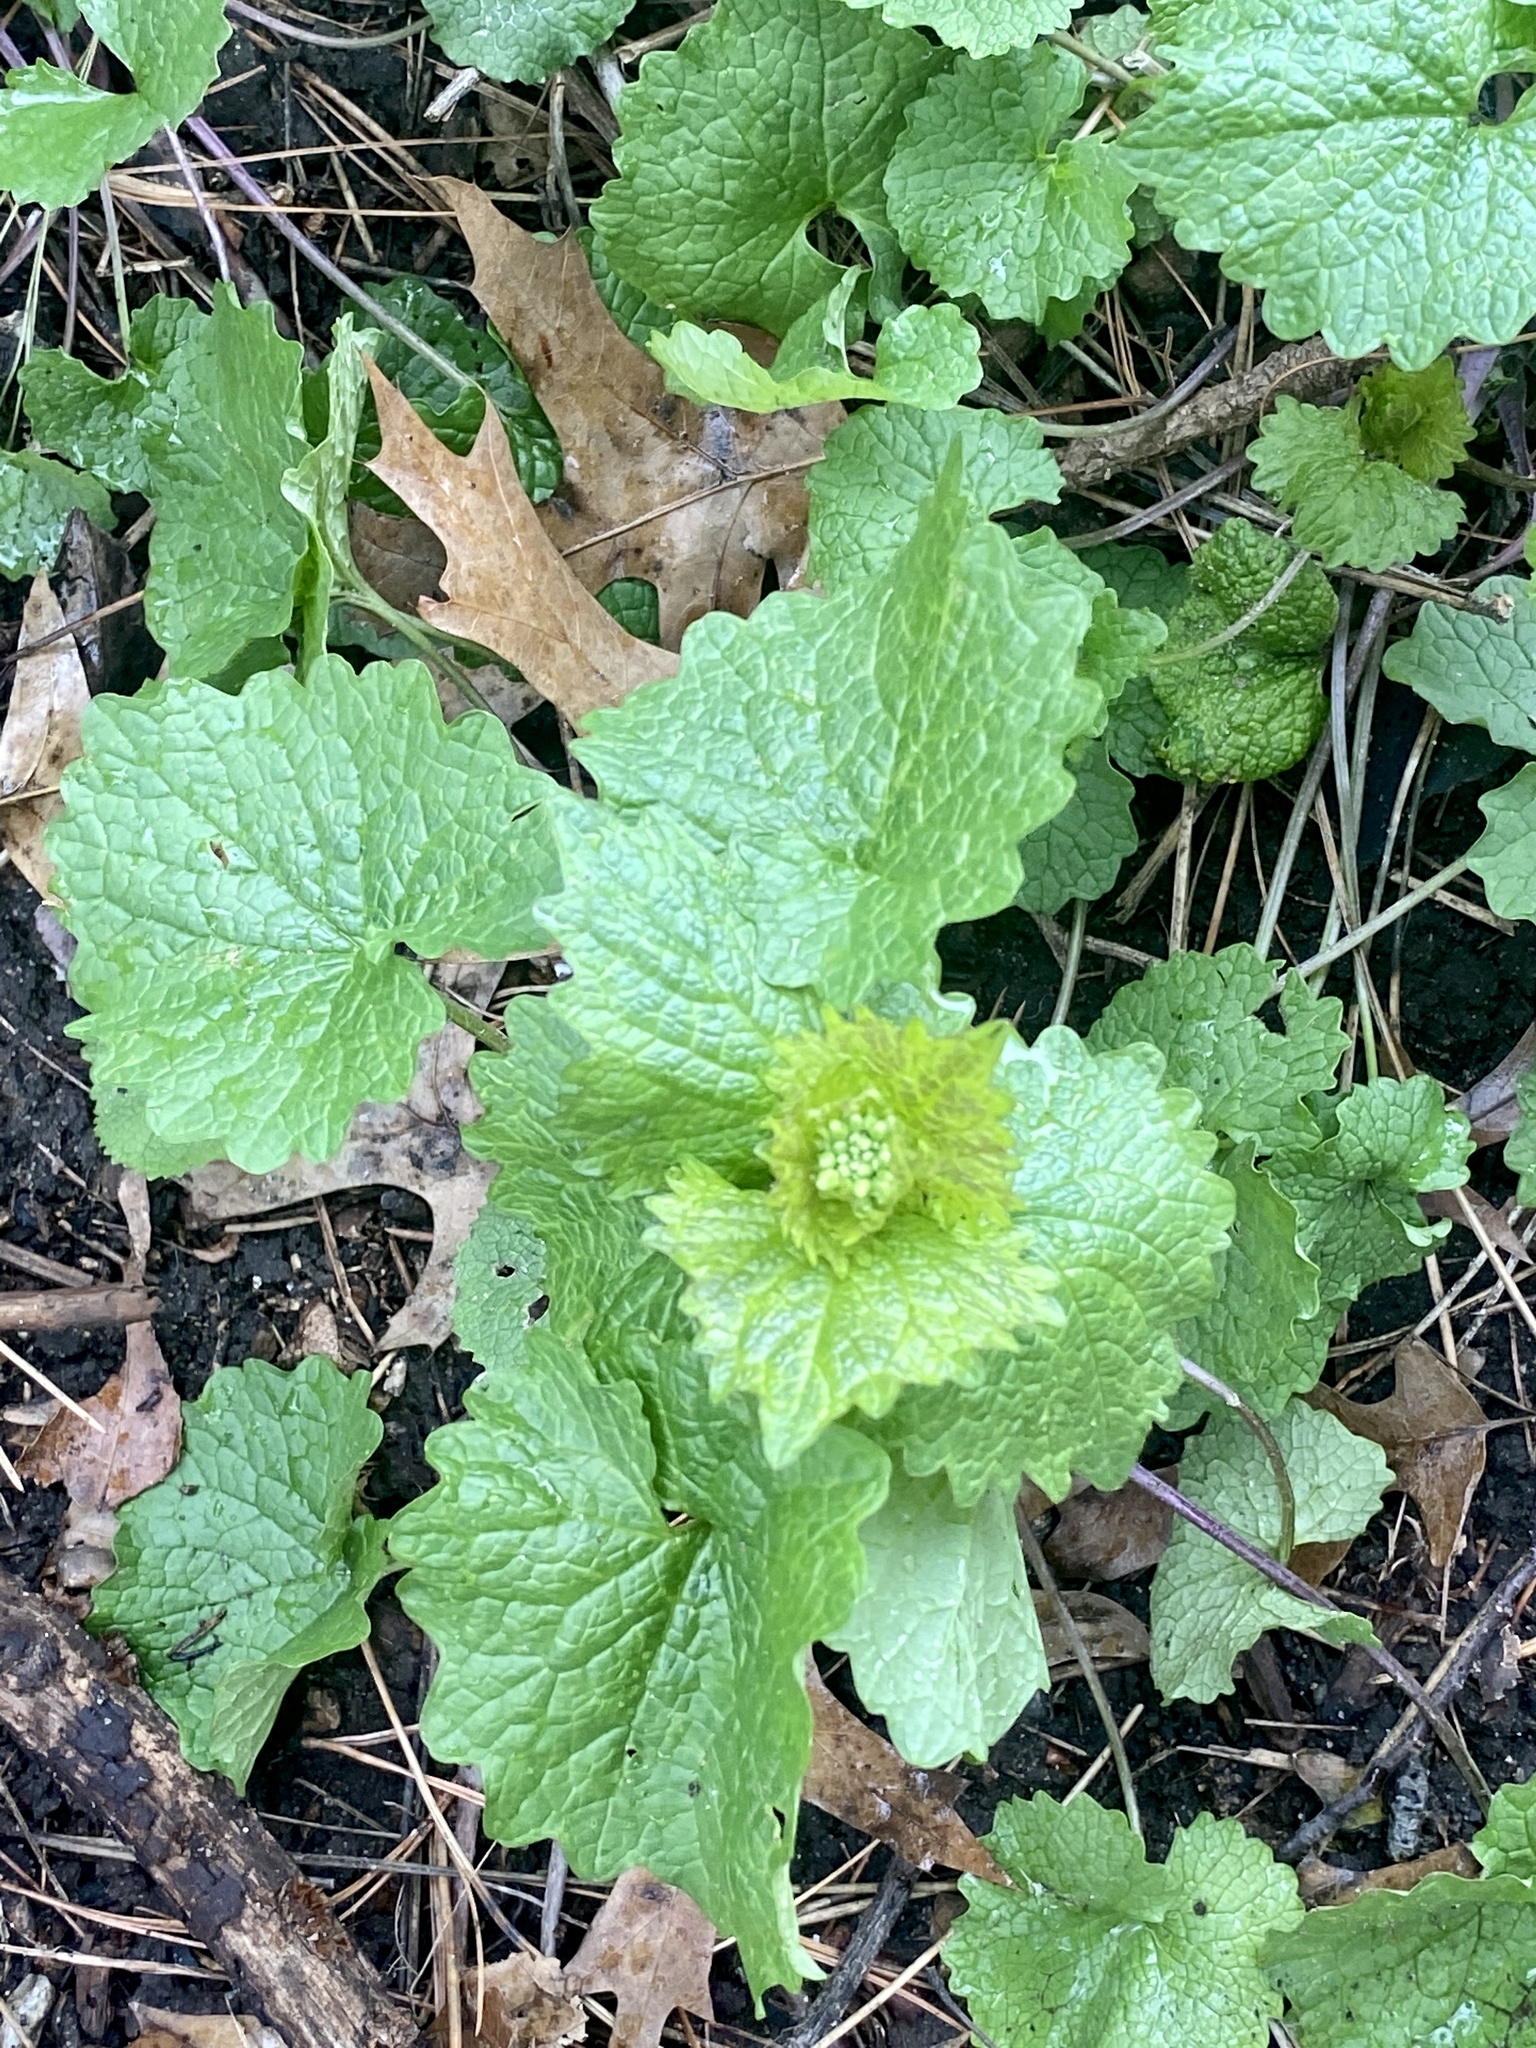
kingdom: Plantae
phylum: Tracheophyta
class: Magnoliopsida
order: Brassicales
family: Brassicaceae
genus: Alliaria
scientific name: Alliaria petiolata
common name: Garlic mustard
